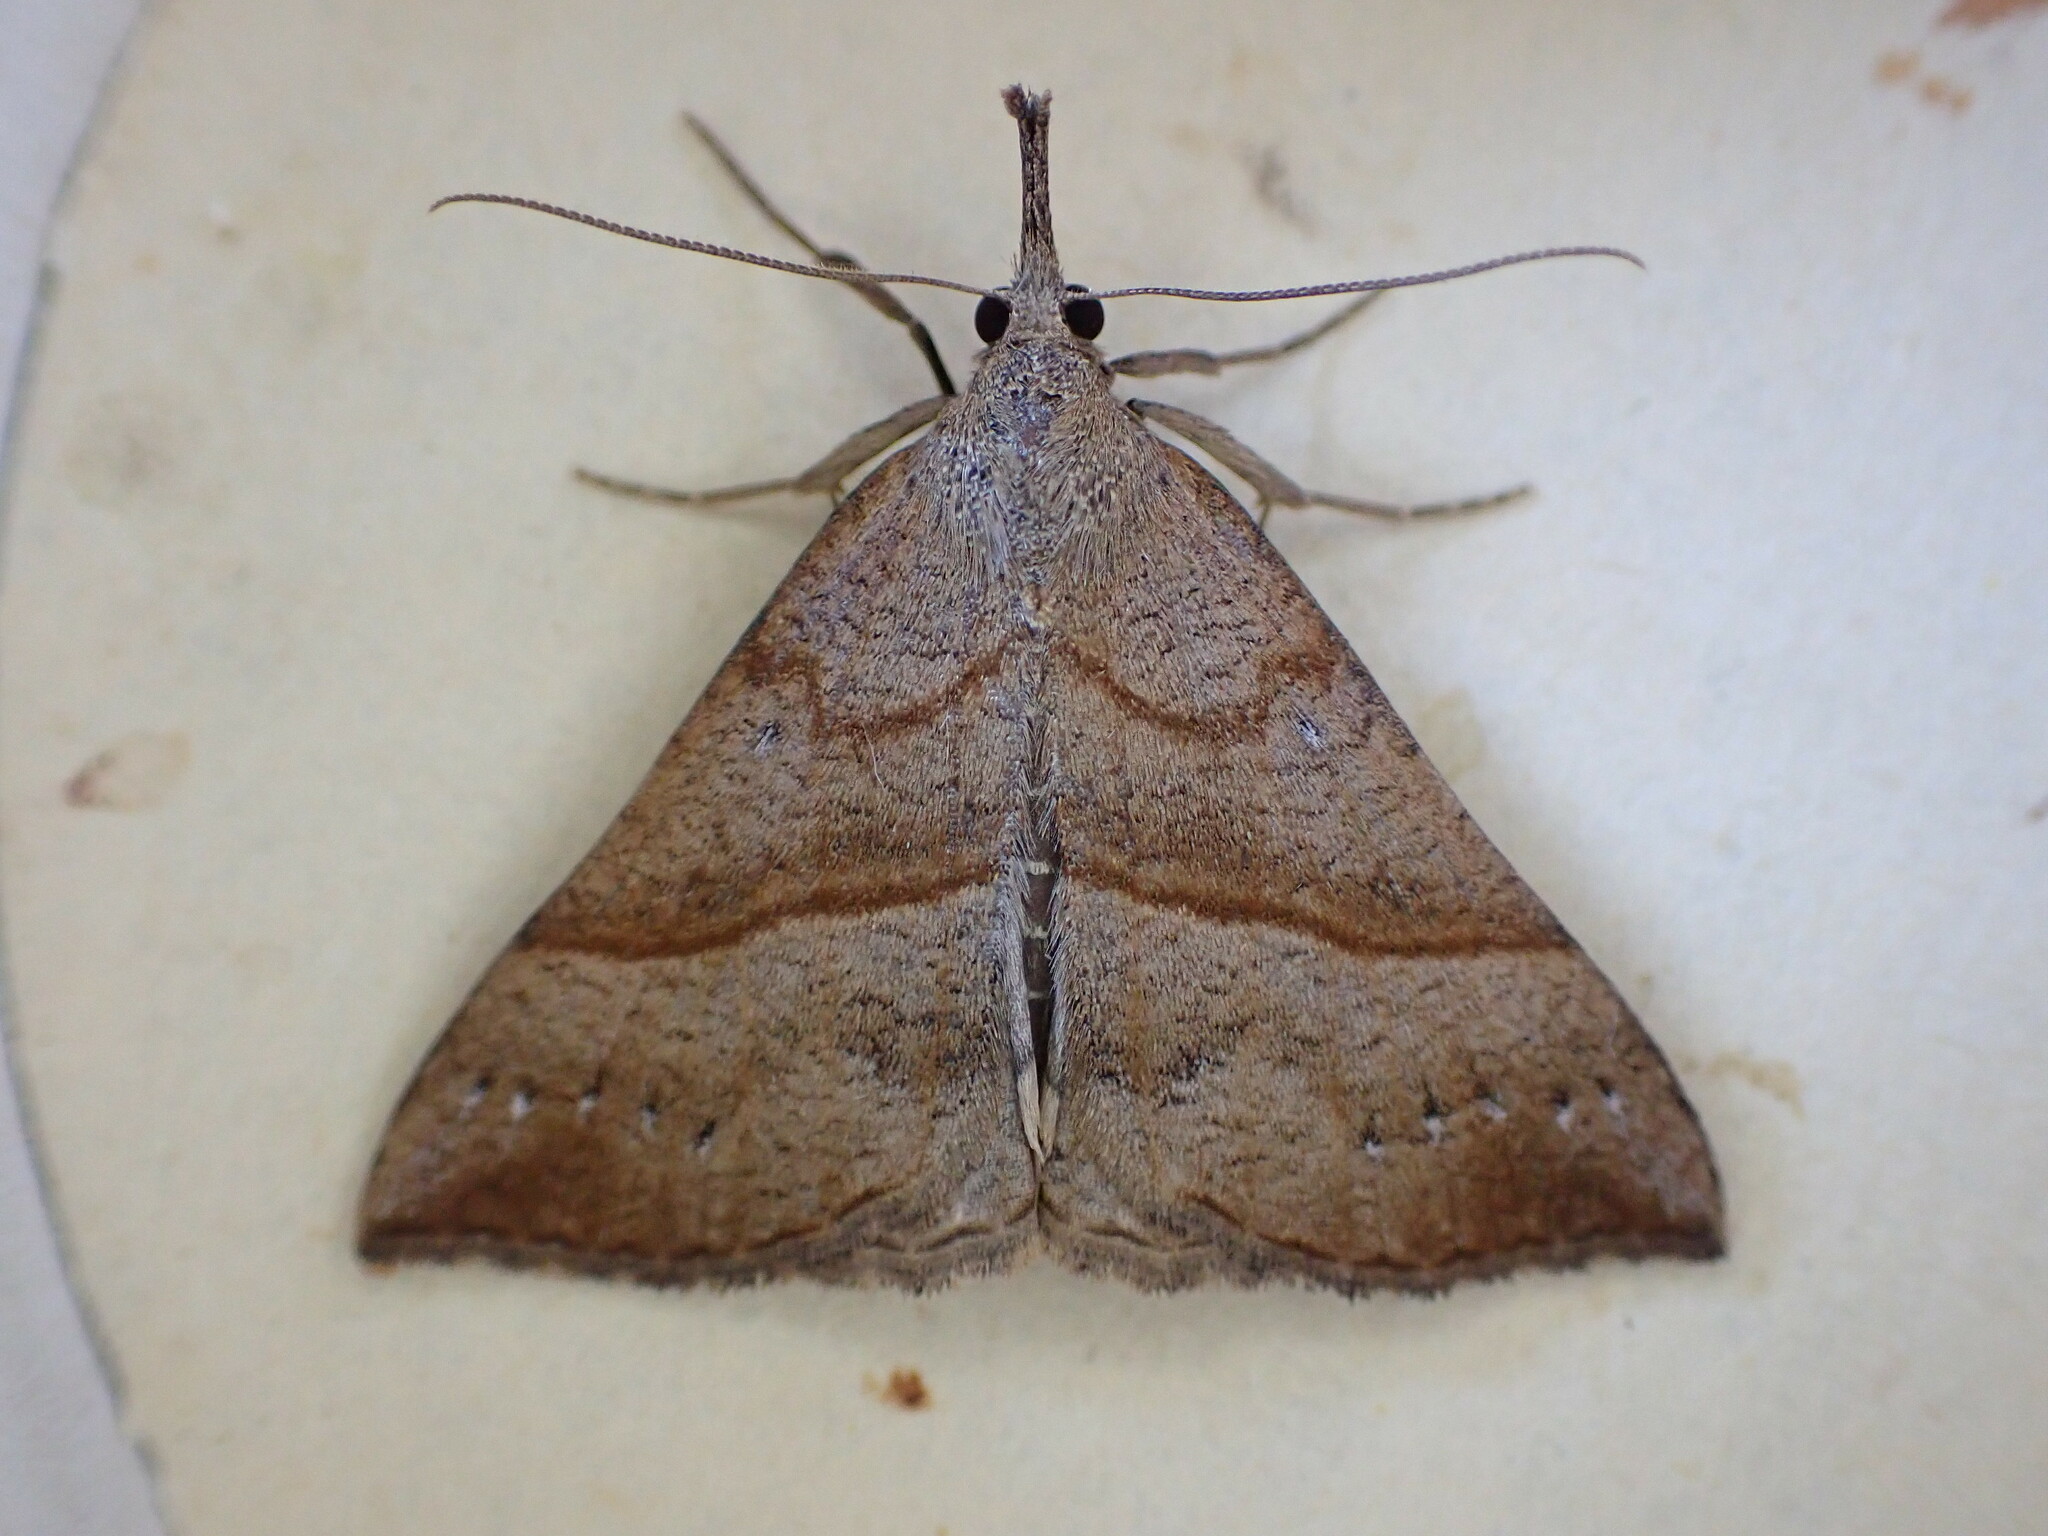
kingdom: Animalia
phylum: Arthropoda
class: Insecta
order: Lepidoptera
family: Erebidae
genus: Hypena
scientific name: Hypena proboscidalis
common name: Snout
